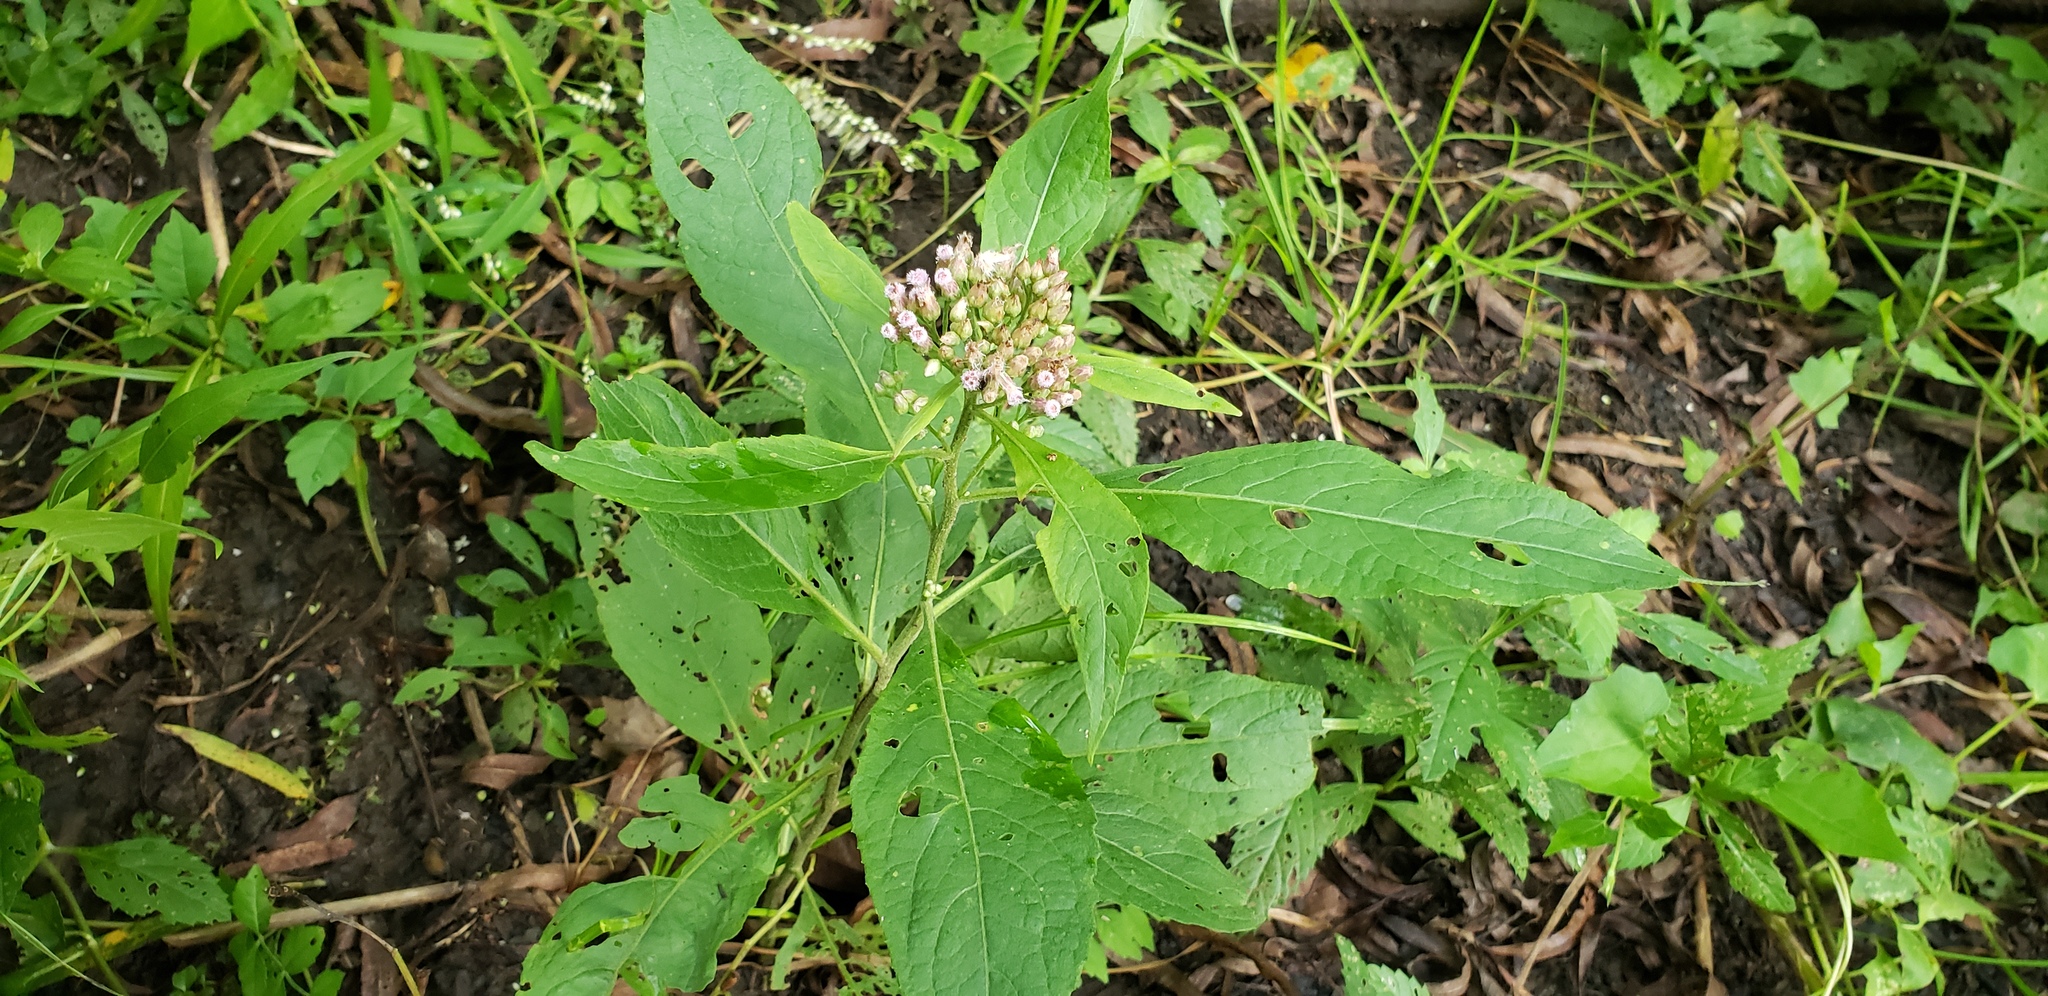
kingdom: Plantae
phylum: Tracheophyta
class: Magnoliopsida
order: Asterales
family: Asteraceae
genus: Pluchea
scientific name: Pluchea camphorata
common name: Camphor pluchea
